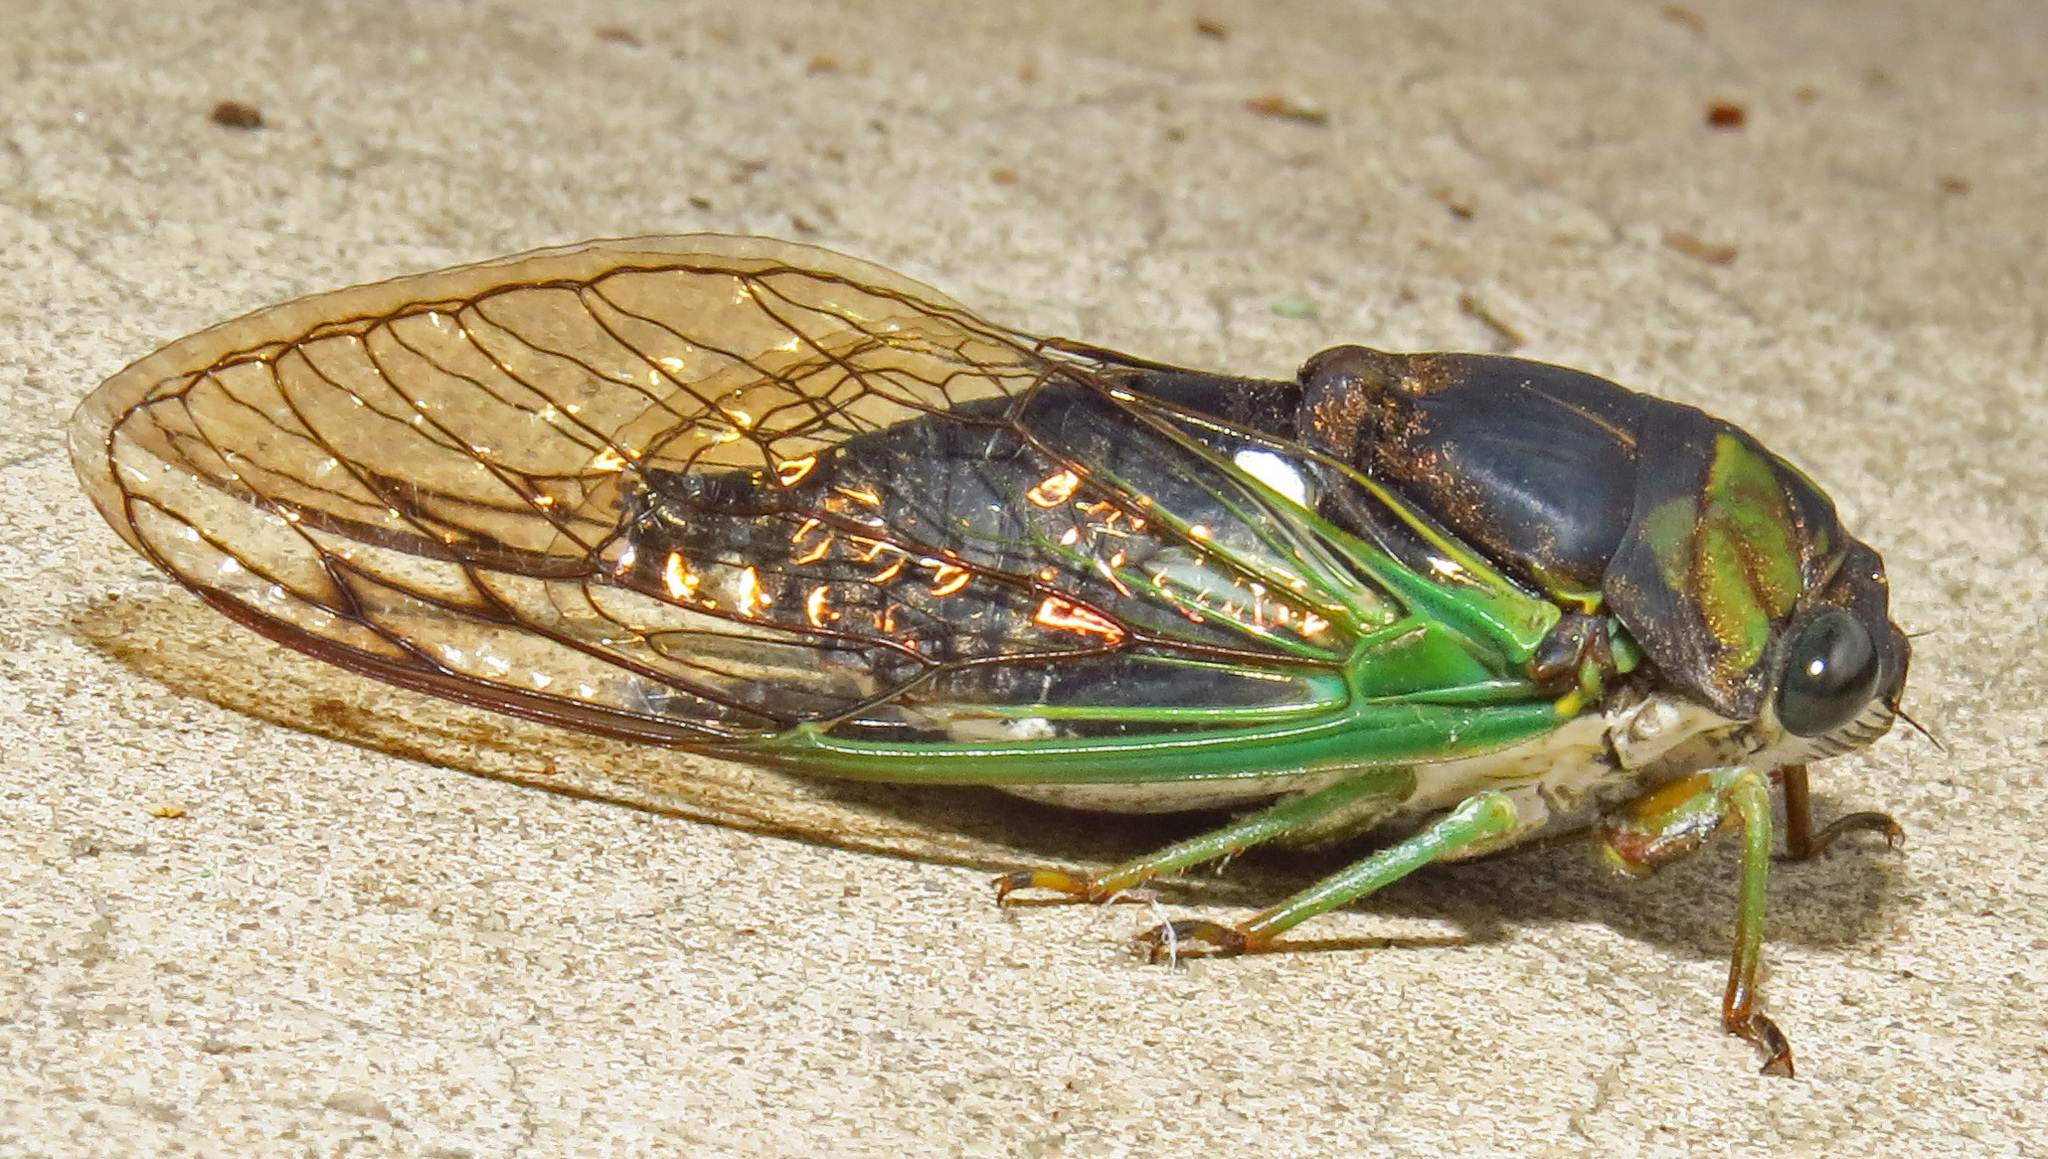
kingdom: Animalia
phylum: Arthropoda
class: Insecta
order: Hemiptera
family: Cicadidae
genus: Neotibicen
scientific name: Neotibicen tibicen
